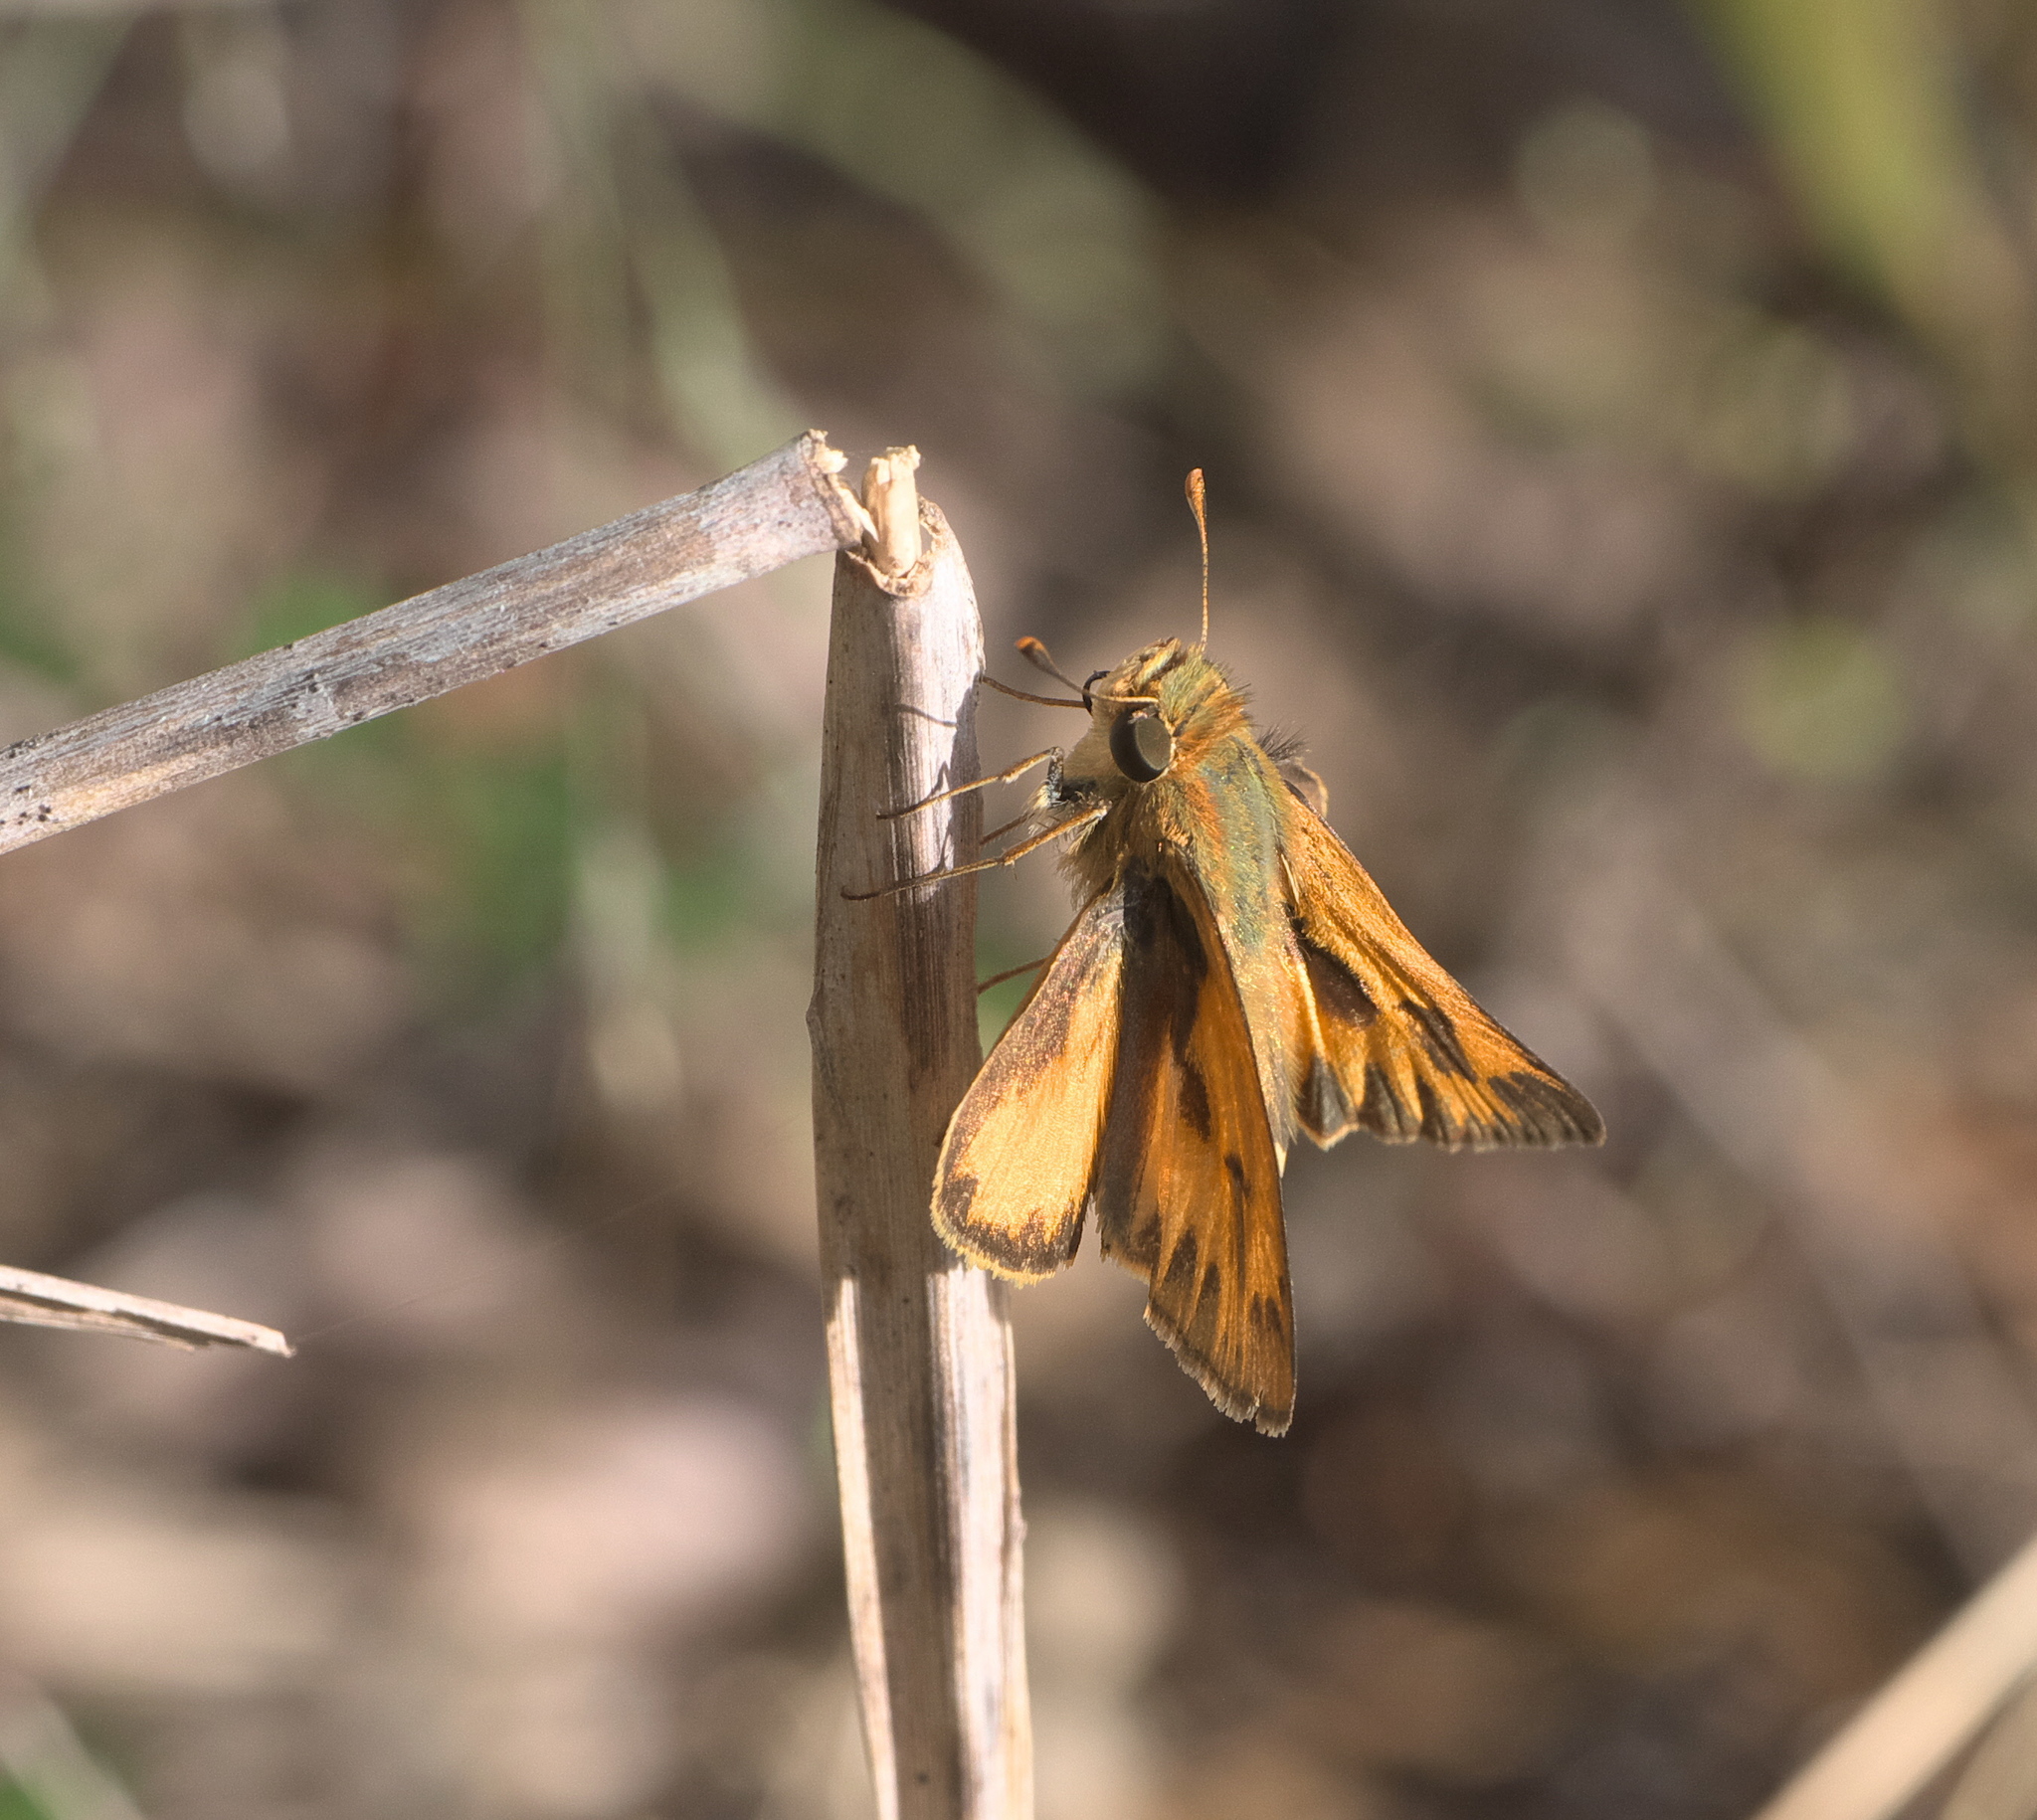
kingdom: Animalia
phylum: Arthropoda
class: Insecta
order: Lepidoptera
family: Hesperiidae
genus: Hylephila
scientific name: Hylephila phyleus
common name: Fiery skipper
